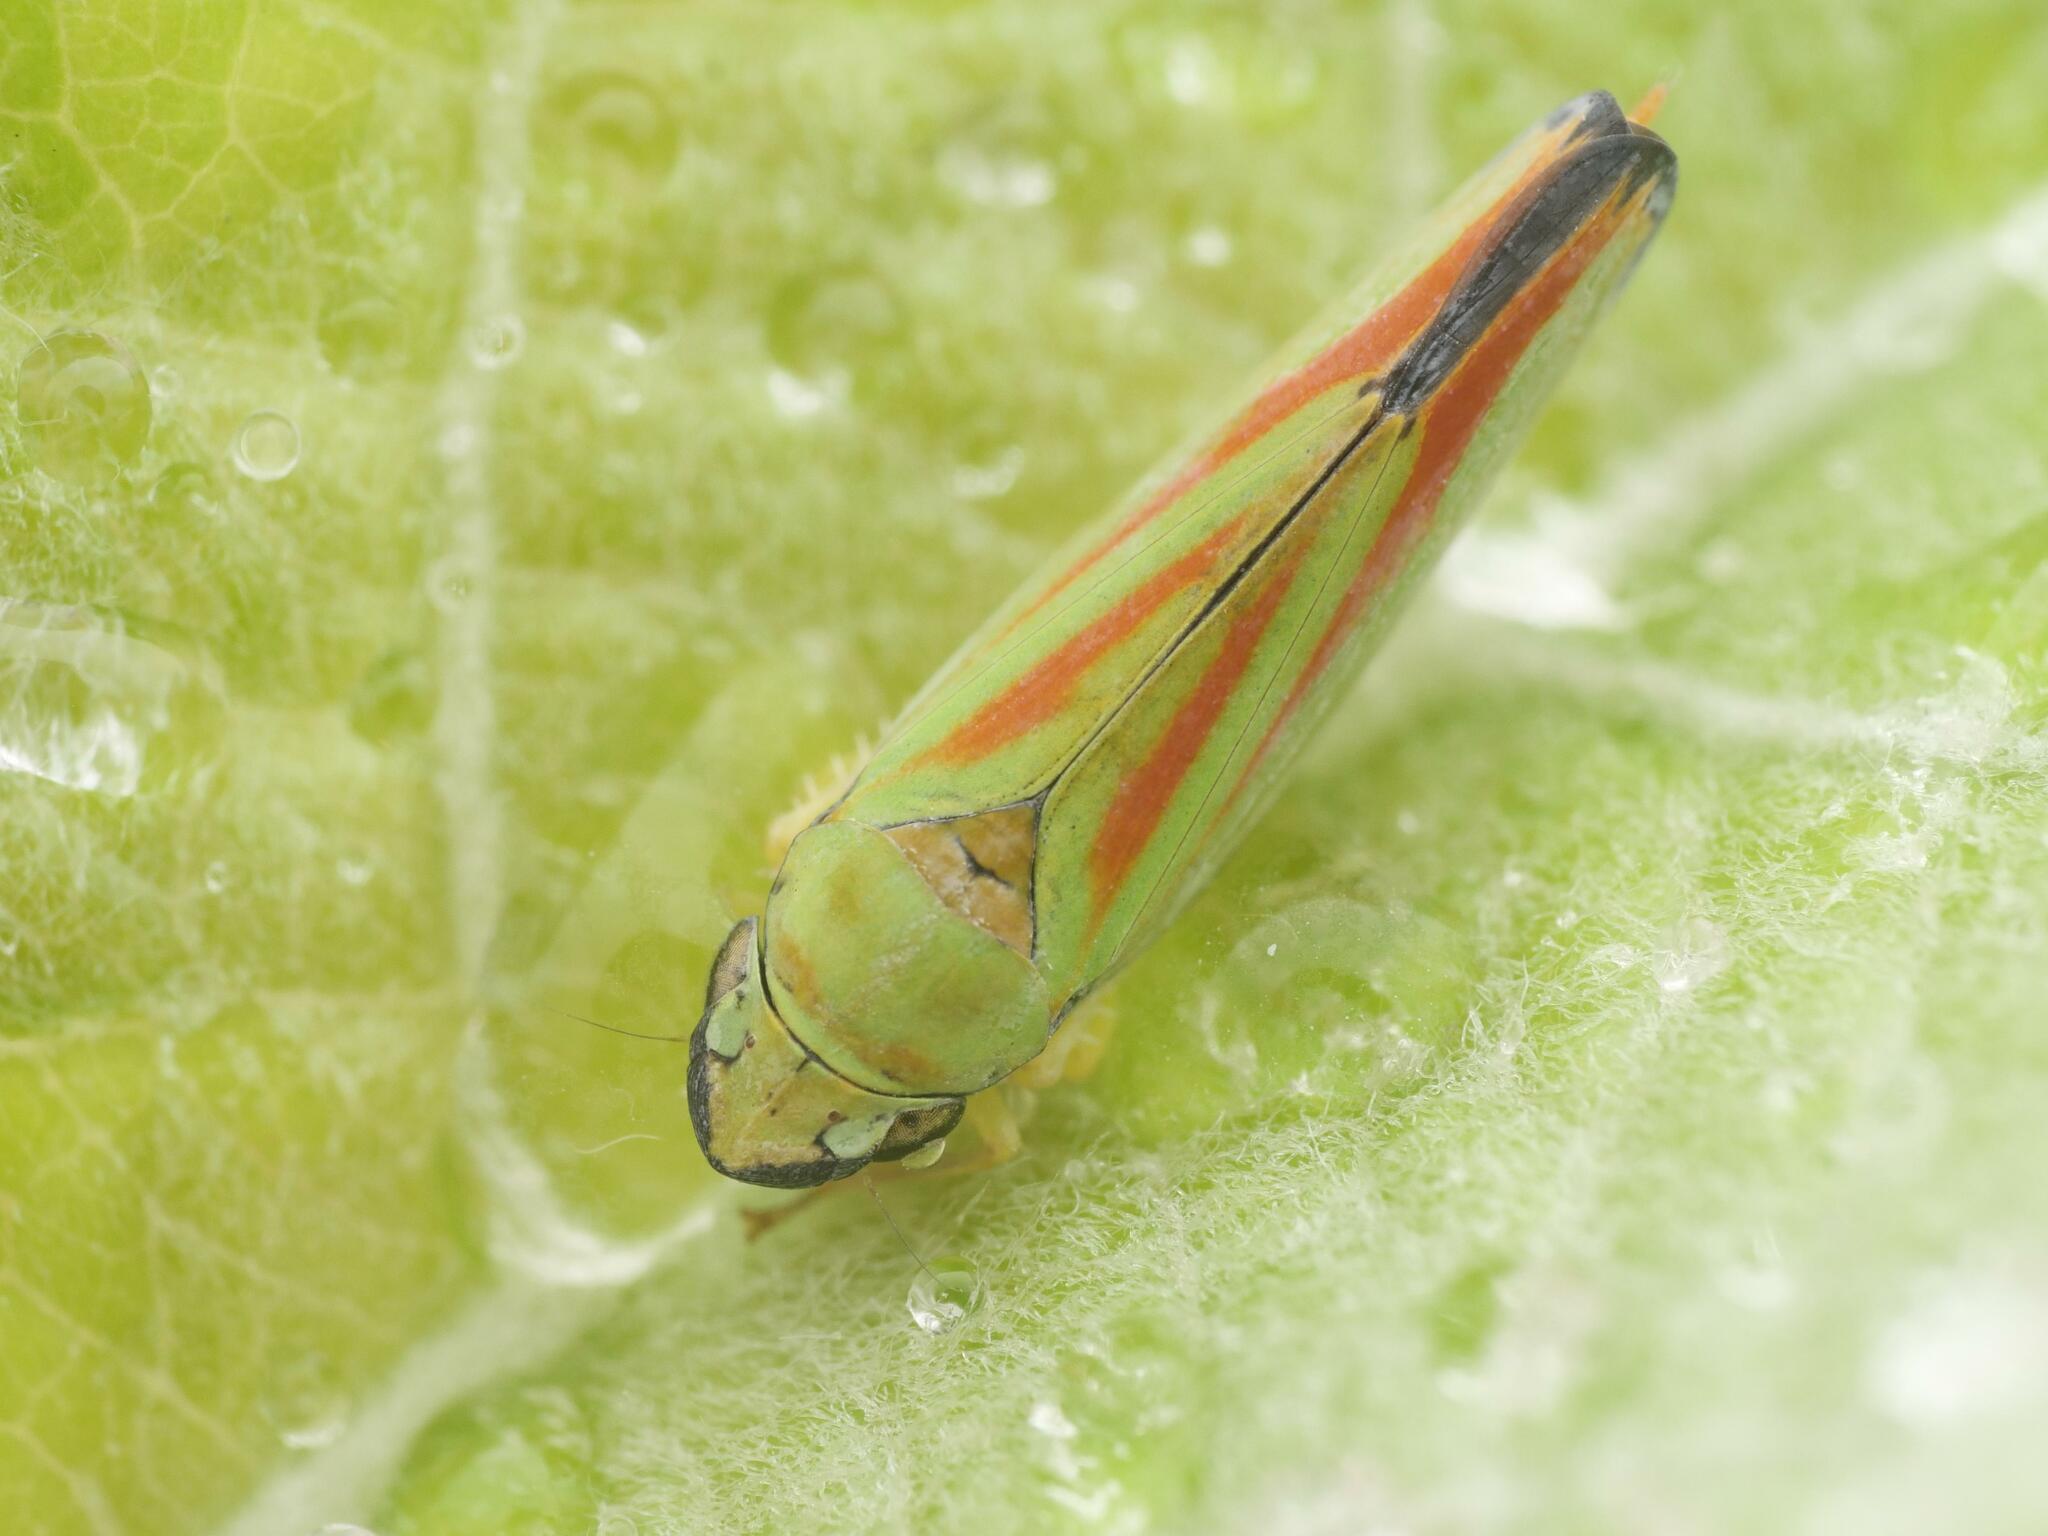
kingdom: Animalia
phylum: Arthropoda
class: Insecta
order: Hemiptera
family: Cicadellidae
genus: Graphocephala
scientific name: Graphocephala fennahi
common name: Rhododendron leafhopper
